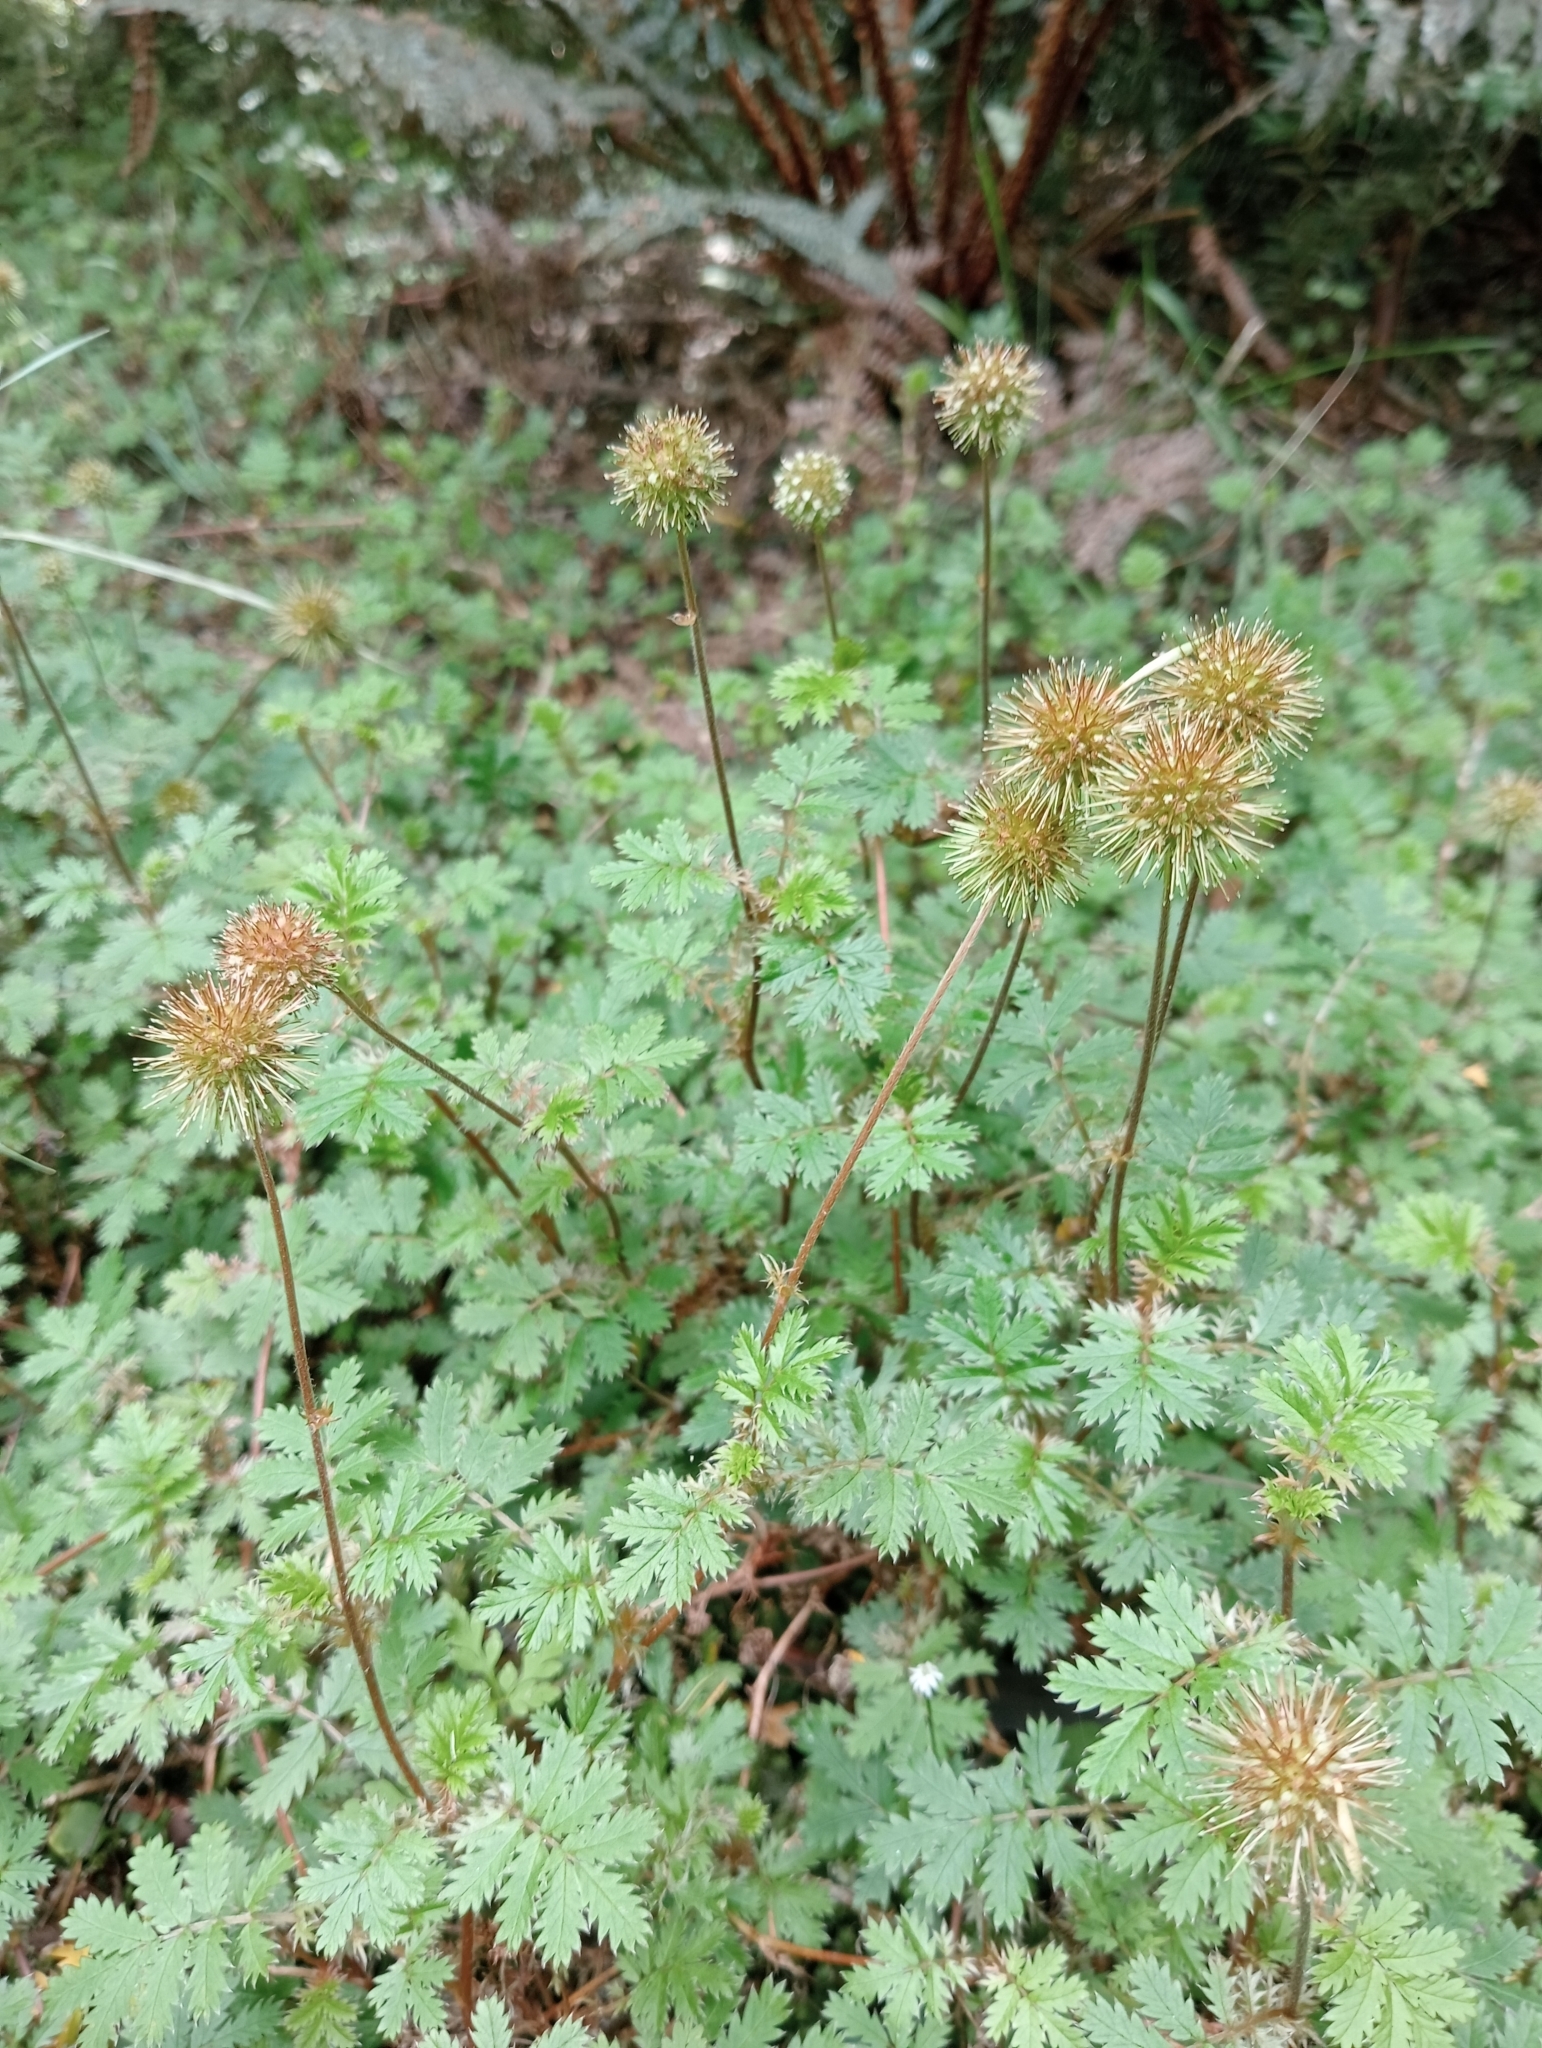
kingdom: Plantae
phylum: Tracheophyta
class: Magnoliopsida
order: Rosales
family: Rosaceae
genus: Acaena
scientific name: Acaena anserinifolia
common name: Bronze pirri-pirri-bur
